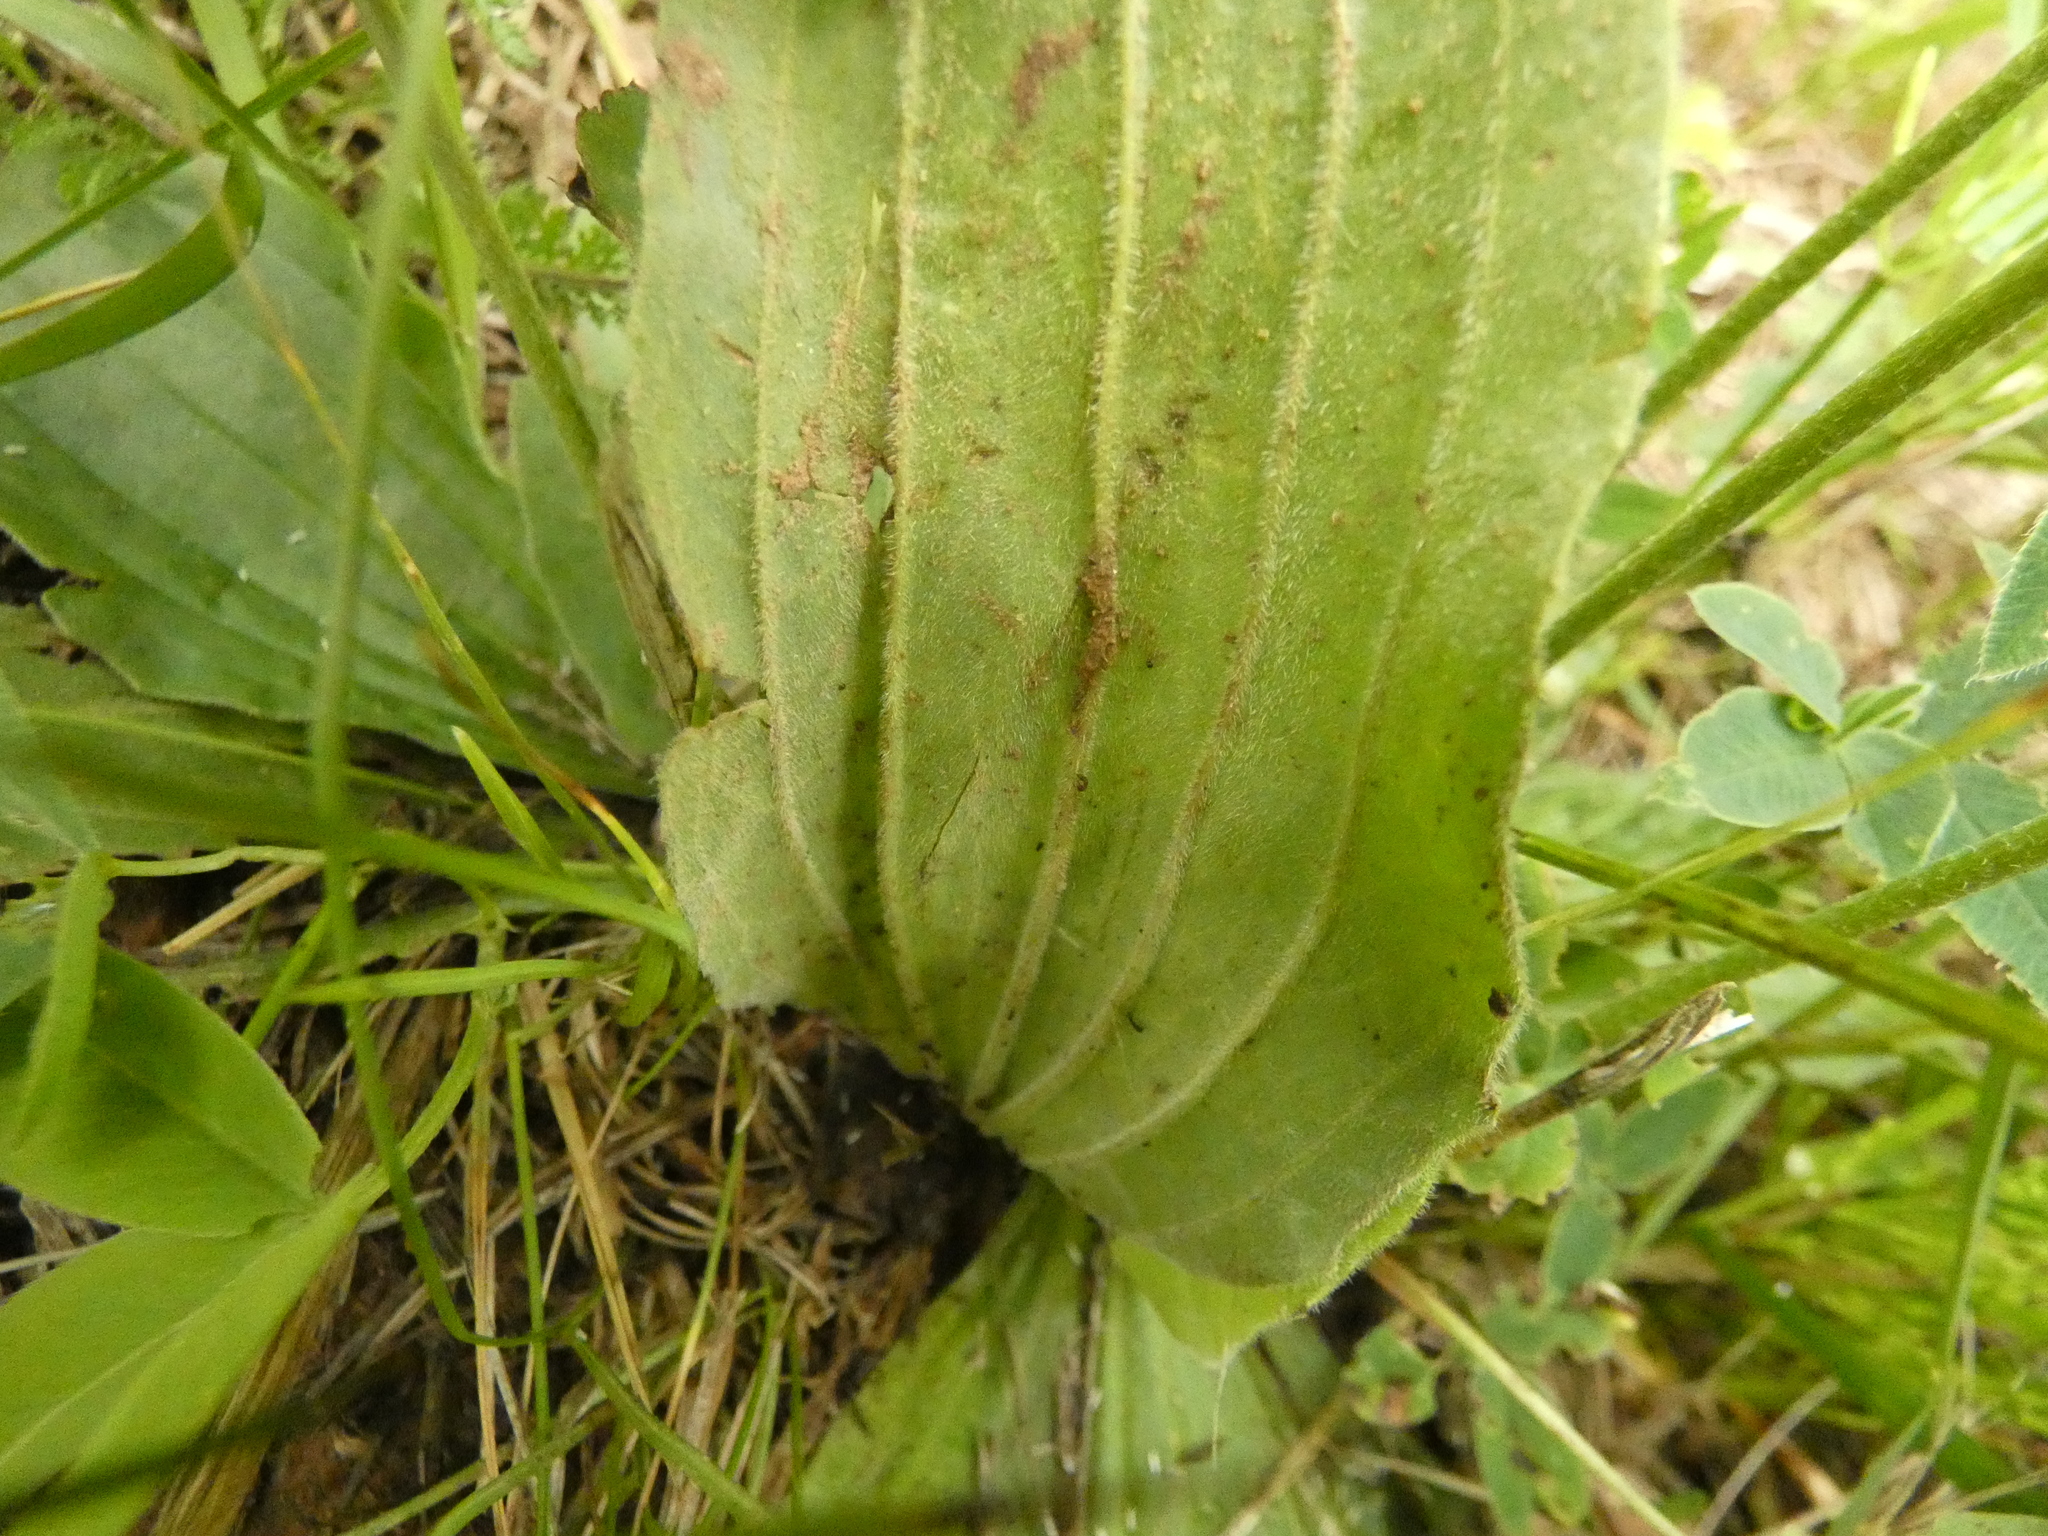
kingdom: Plantae
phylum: Tracheophyta
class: Magnoliopsida
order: Lamiales
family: Plantaginaceae
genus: Plantago
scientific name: Plantago media
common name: Hoary plantain
